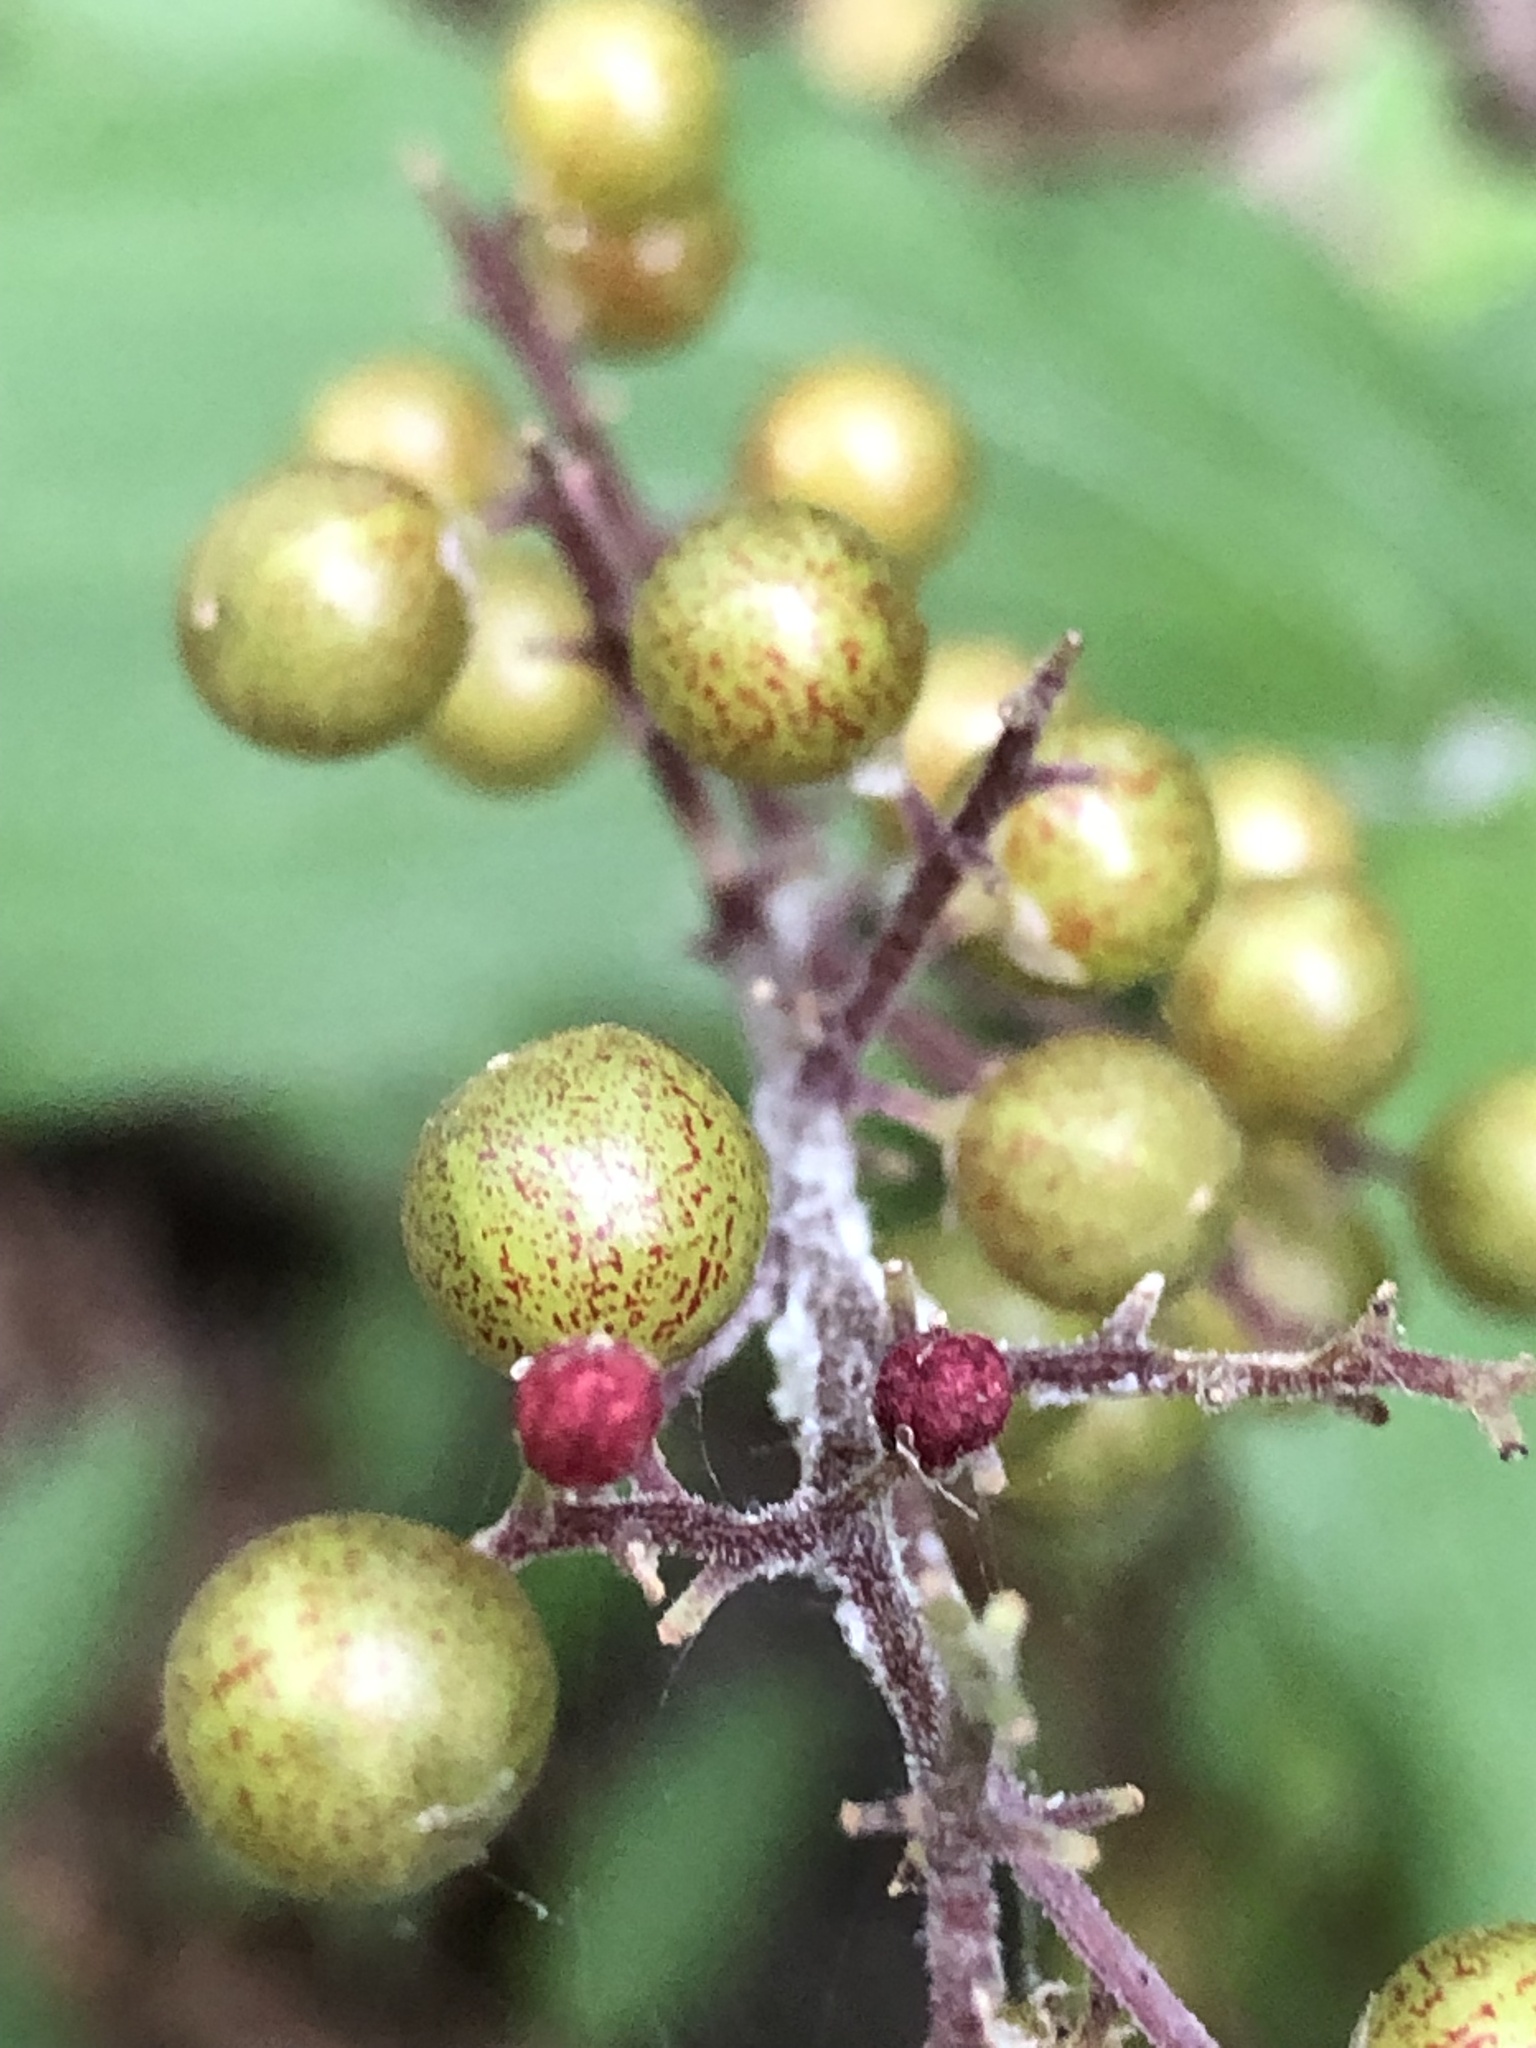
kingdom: Plantae
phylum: Tracheophyta
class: Liliopsida
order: Asparagales
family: Asparagaceae
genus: Maianthemum
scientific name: Maianthemum racemosum
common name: False spikenard
